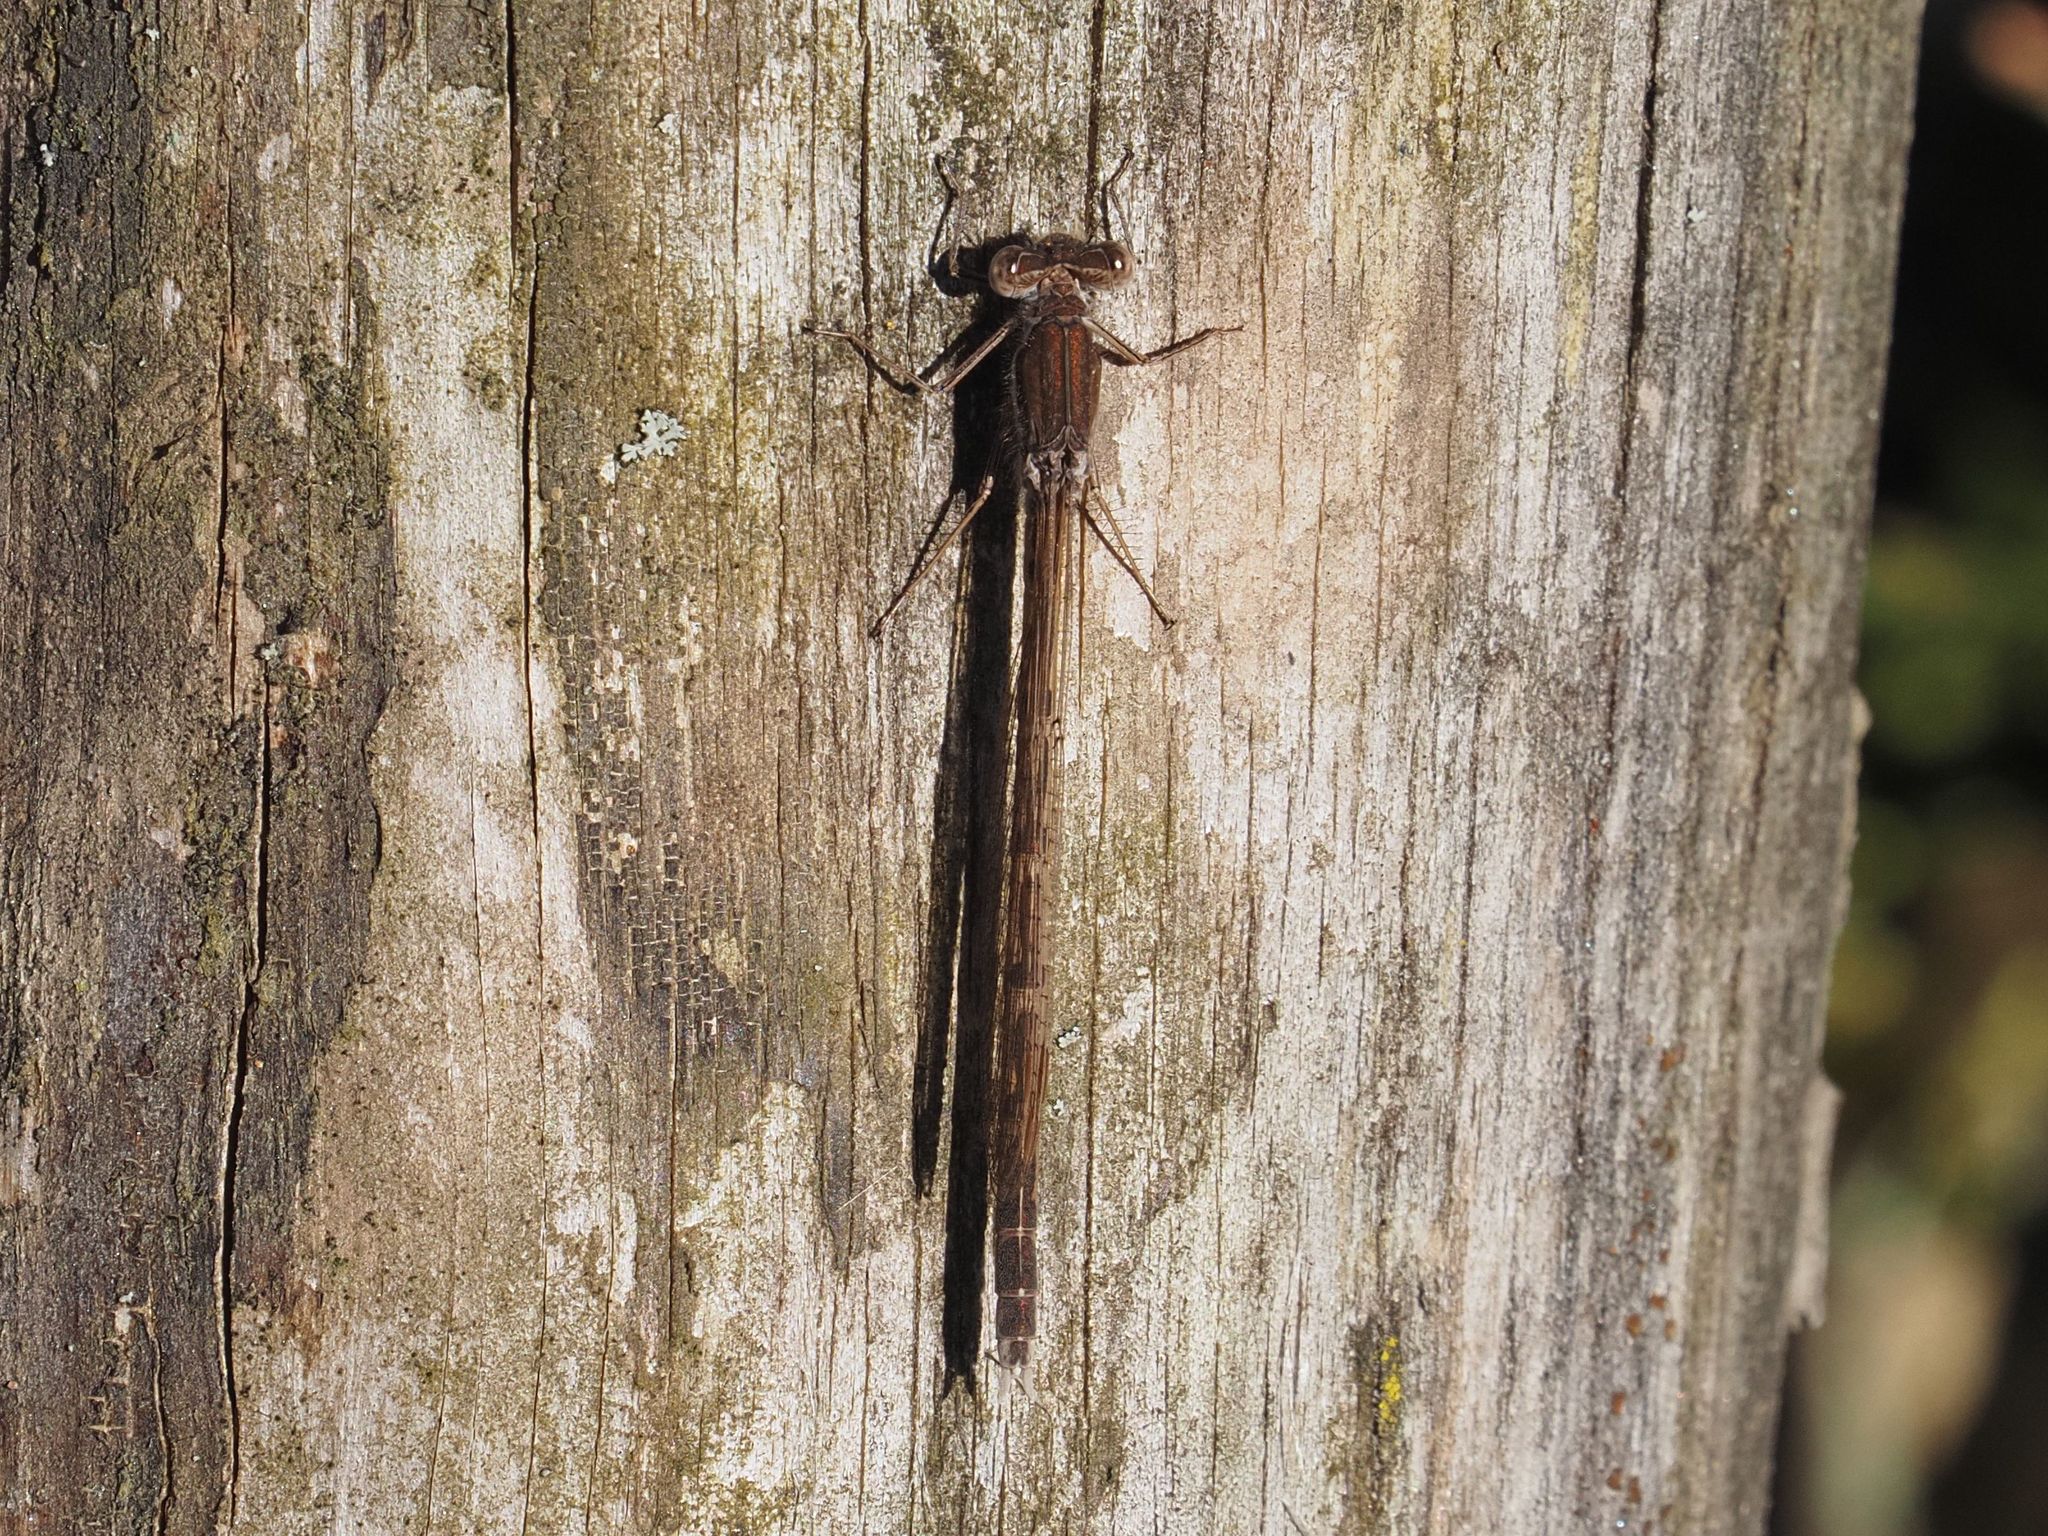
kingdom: Animalia
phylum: Arthropoda
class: Insecta
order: Odonata
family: Lestidae
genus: Sympecma
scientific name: Sympecma fusca
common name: Common winter damsel
